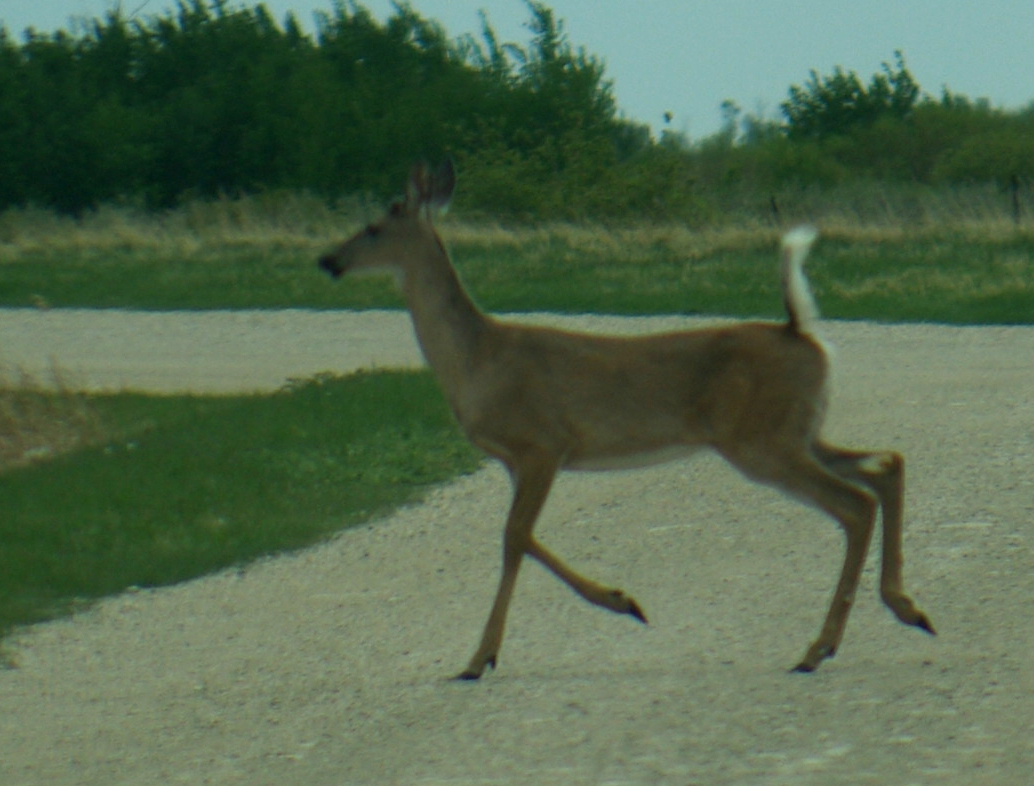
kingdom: Animalia
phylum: Chordata
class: Mammalia
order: Artiodactyla
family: Cervidae
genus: Odocoileus
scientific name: Odocoileus virginianus
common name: White-tailed deer
